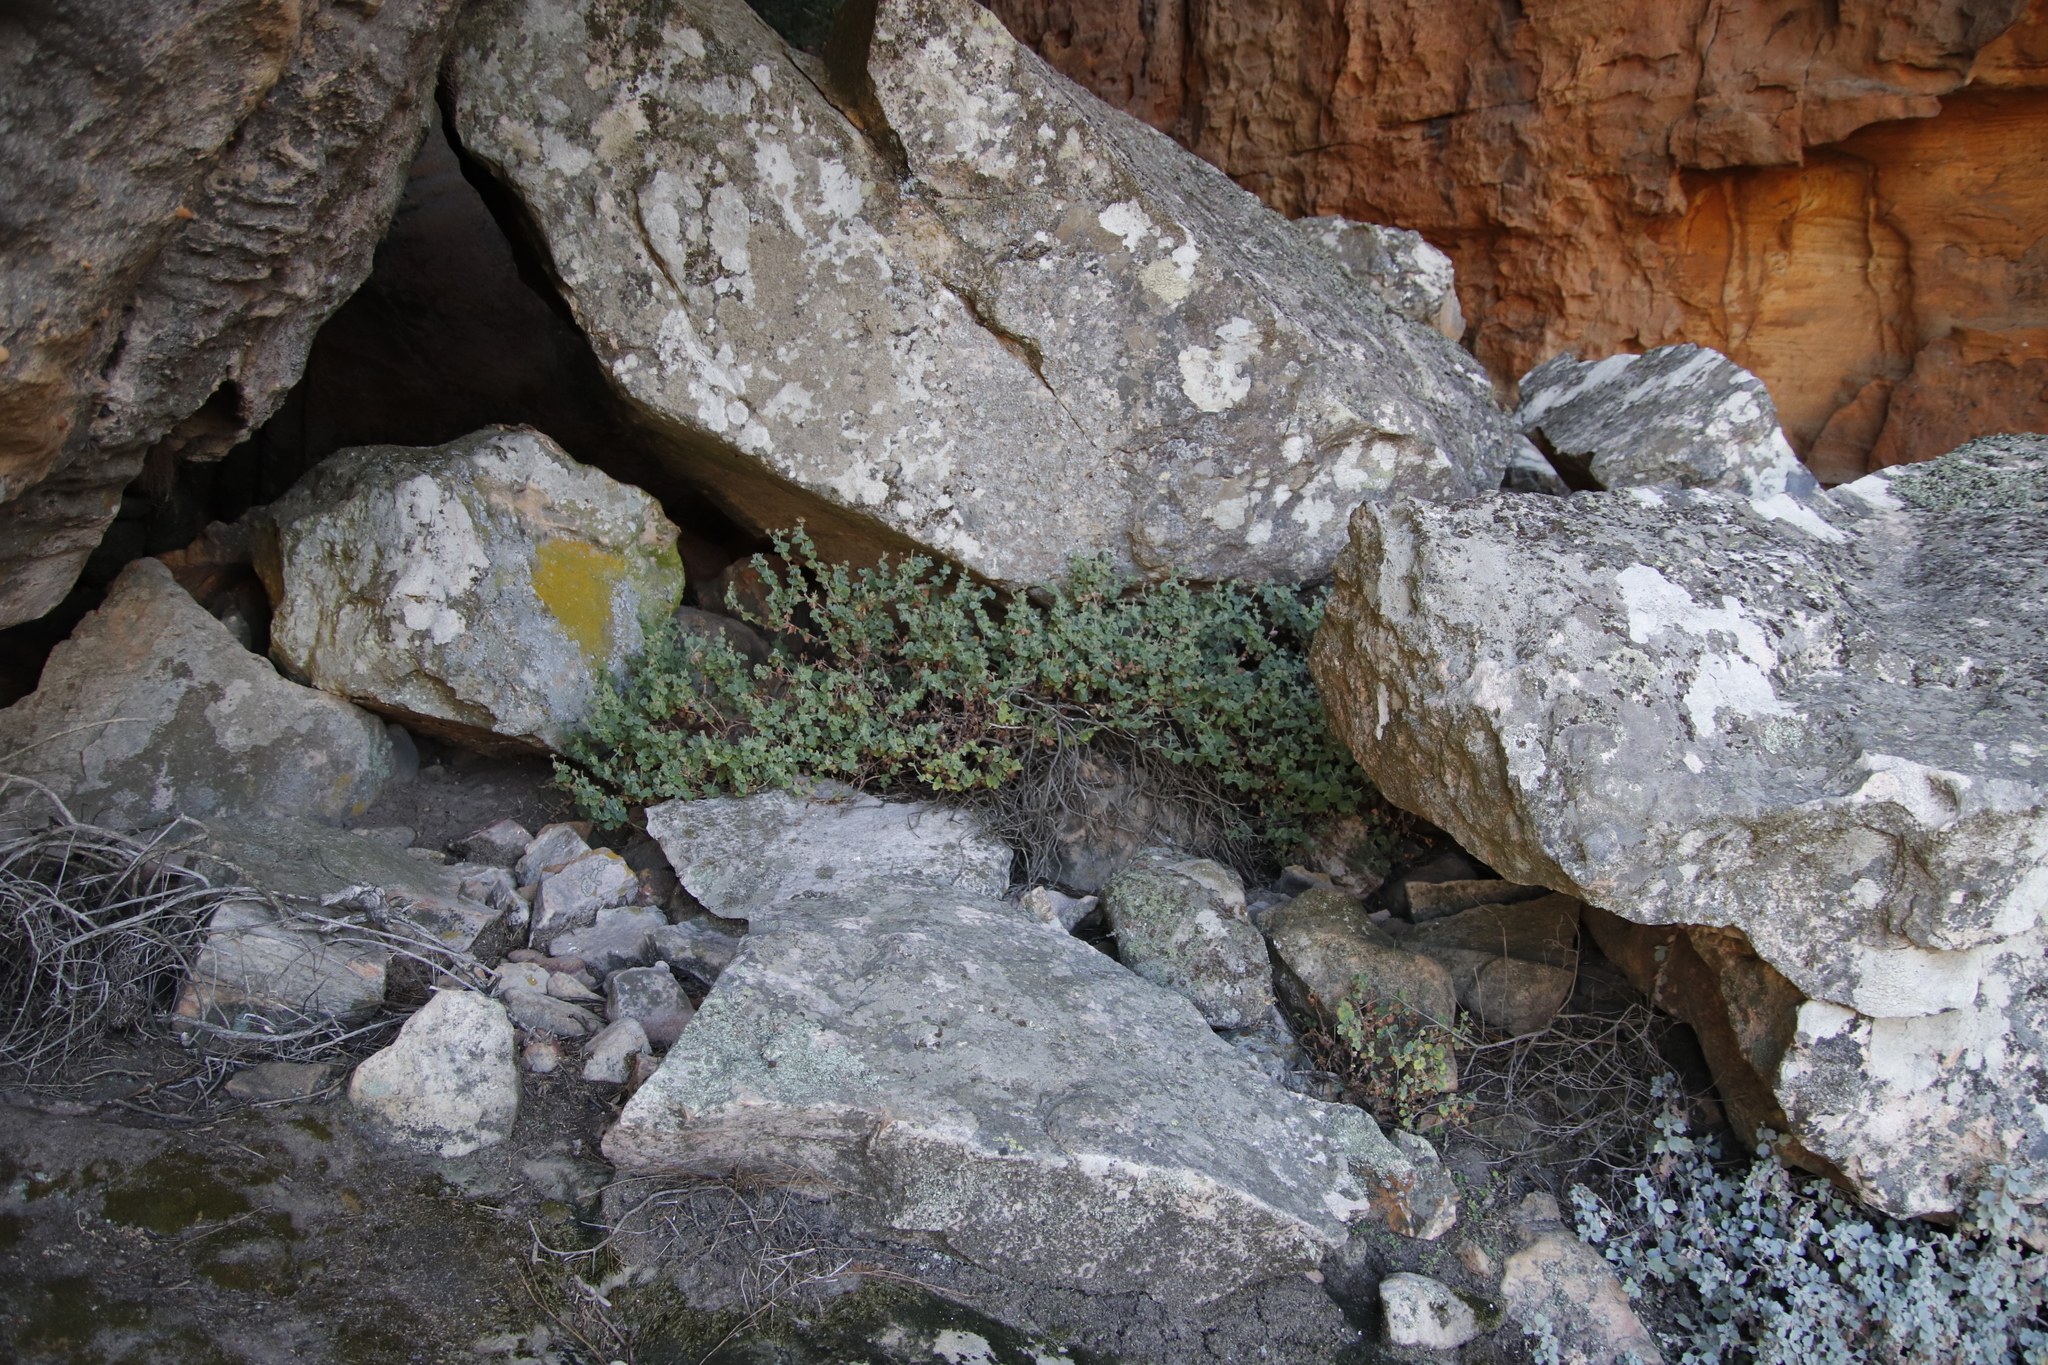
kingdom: Plantae
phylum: Tracheophyta
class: Magnoliopsida
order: Asterales
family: Asteraceae
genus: Lidbeckia
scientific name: Lidbeckia quinqueloba
